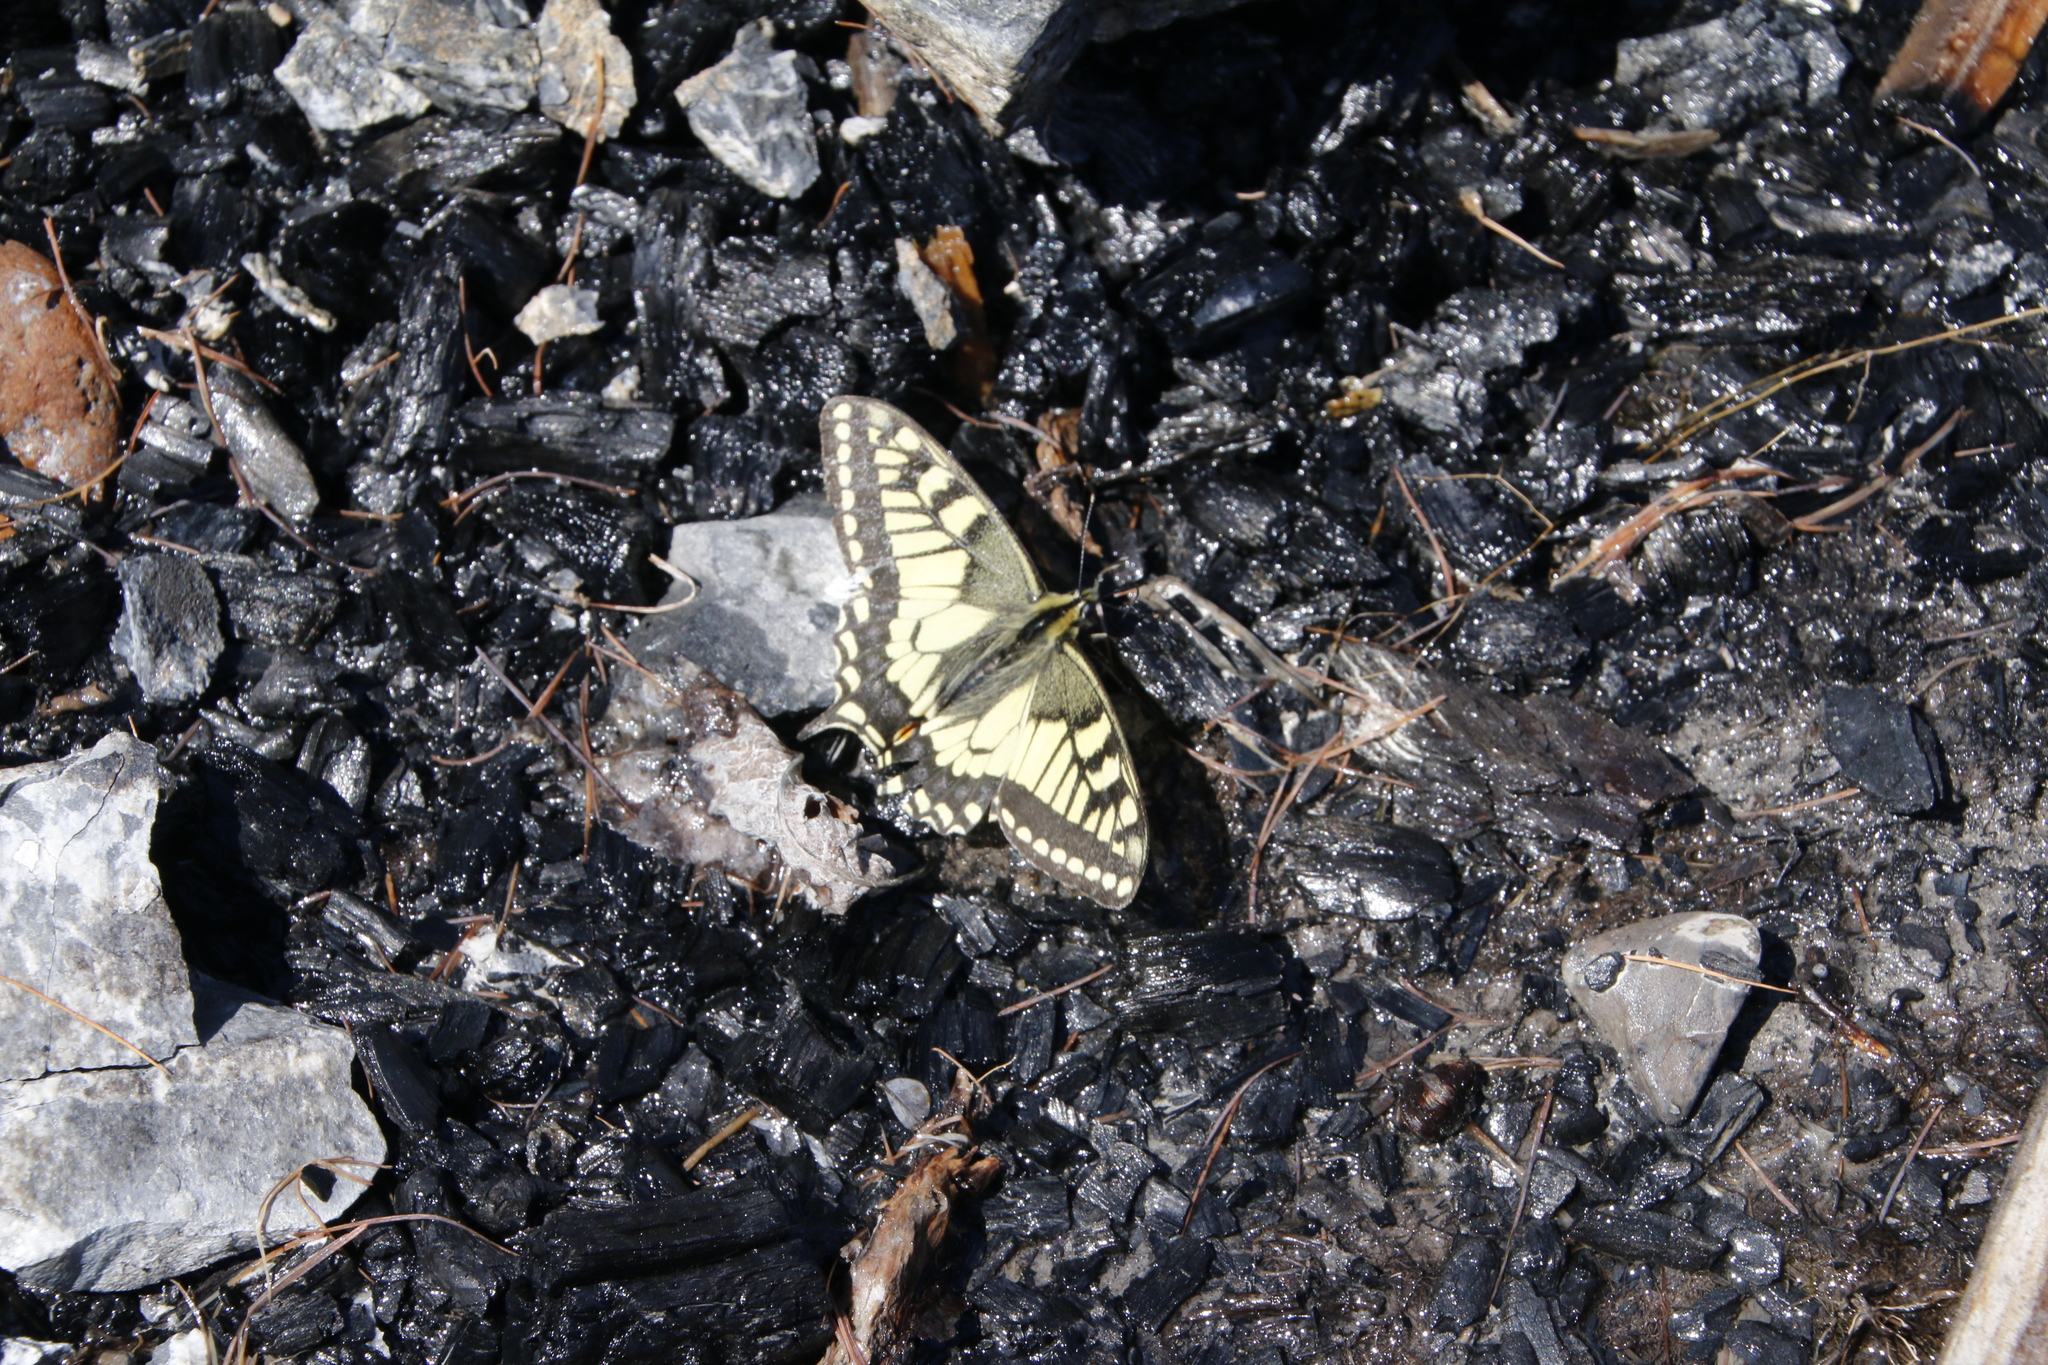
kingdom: Animalia
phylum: Arthropoda
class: Insecta
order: Lepidoptera
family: Papilionidae
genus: Papilio
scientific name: Papilio machaon
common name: Swallowtail
